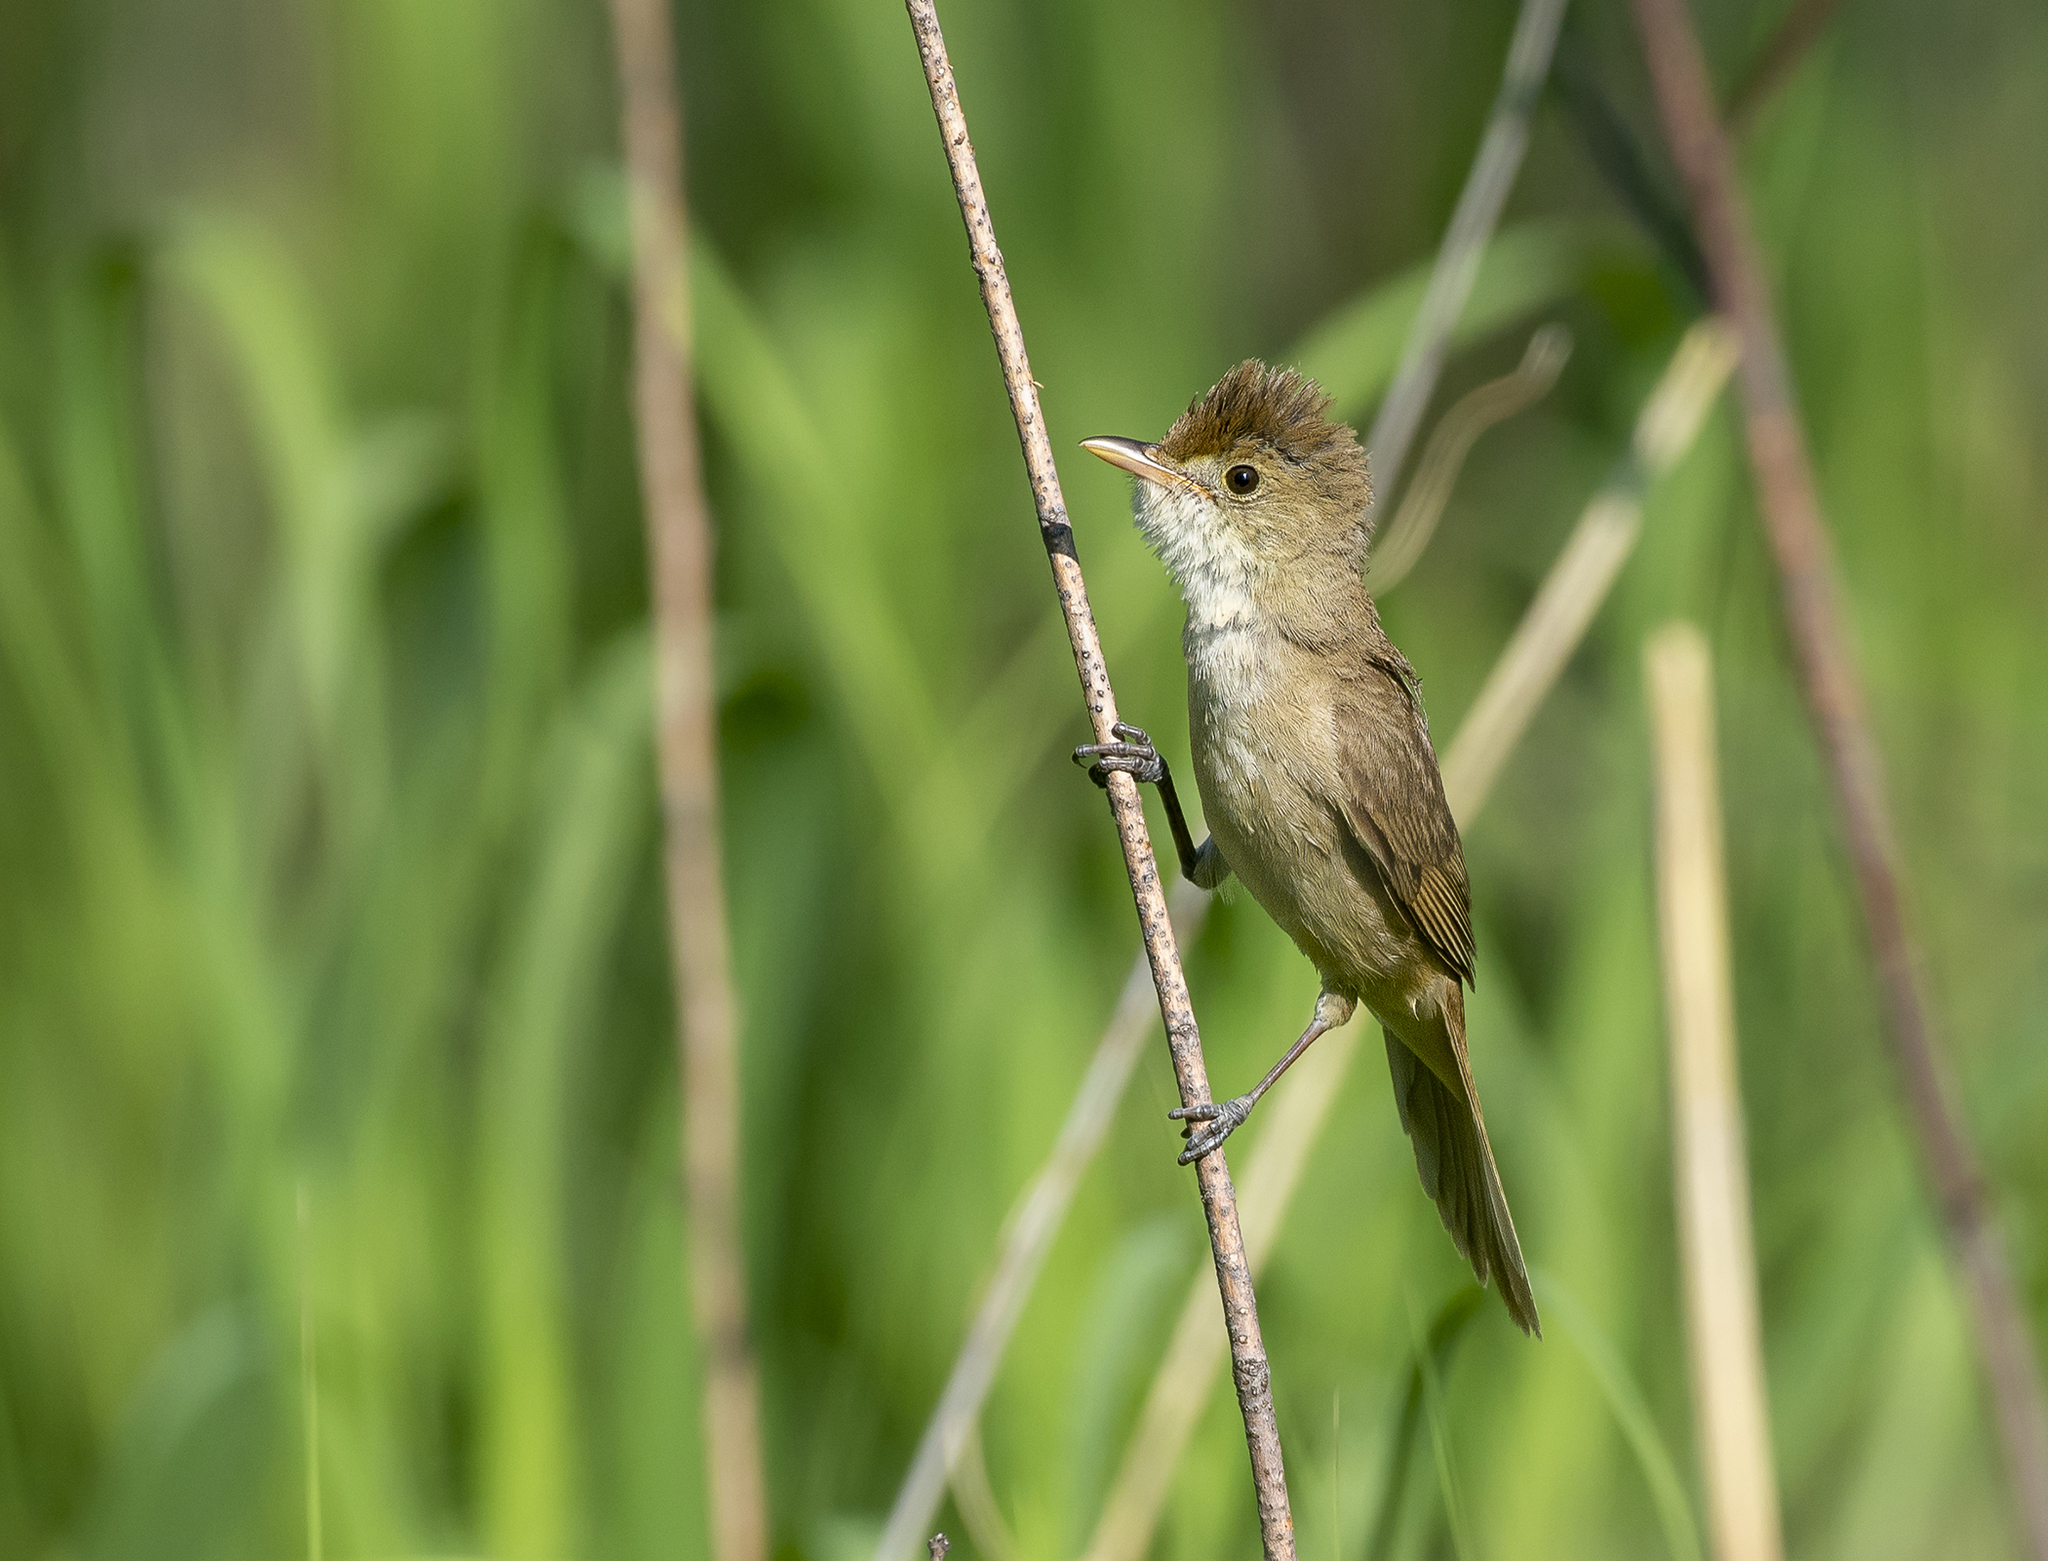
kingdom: Animalia
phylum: Chordata
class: Aves
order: Passeriformes
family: Acrocephalidae
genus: Iduna
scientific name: Iduna aedon
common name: Thick-billed warbler
